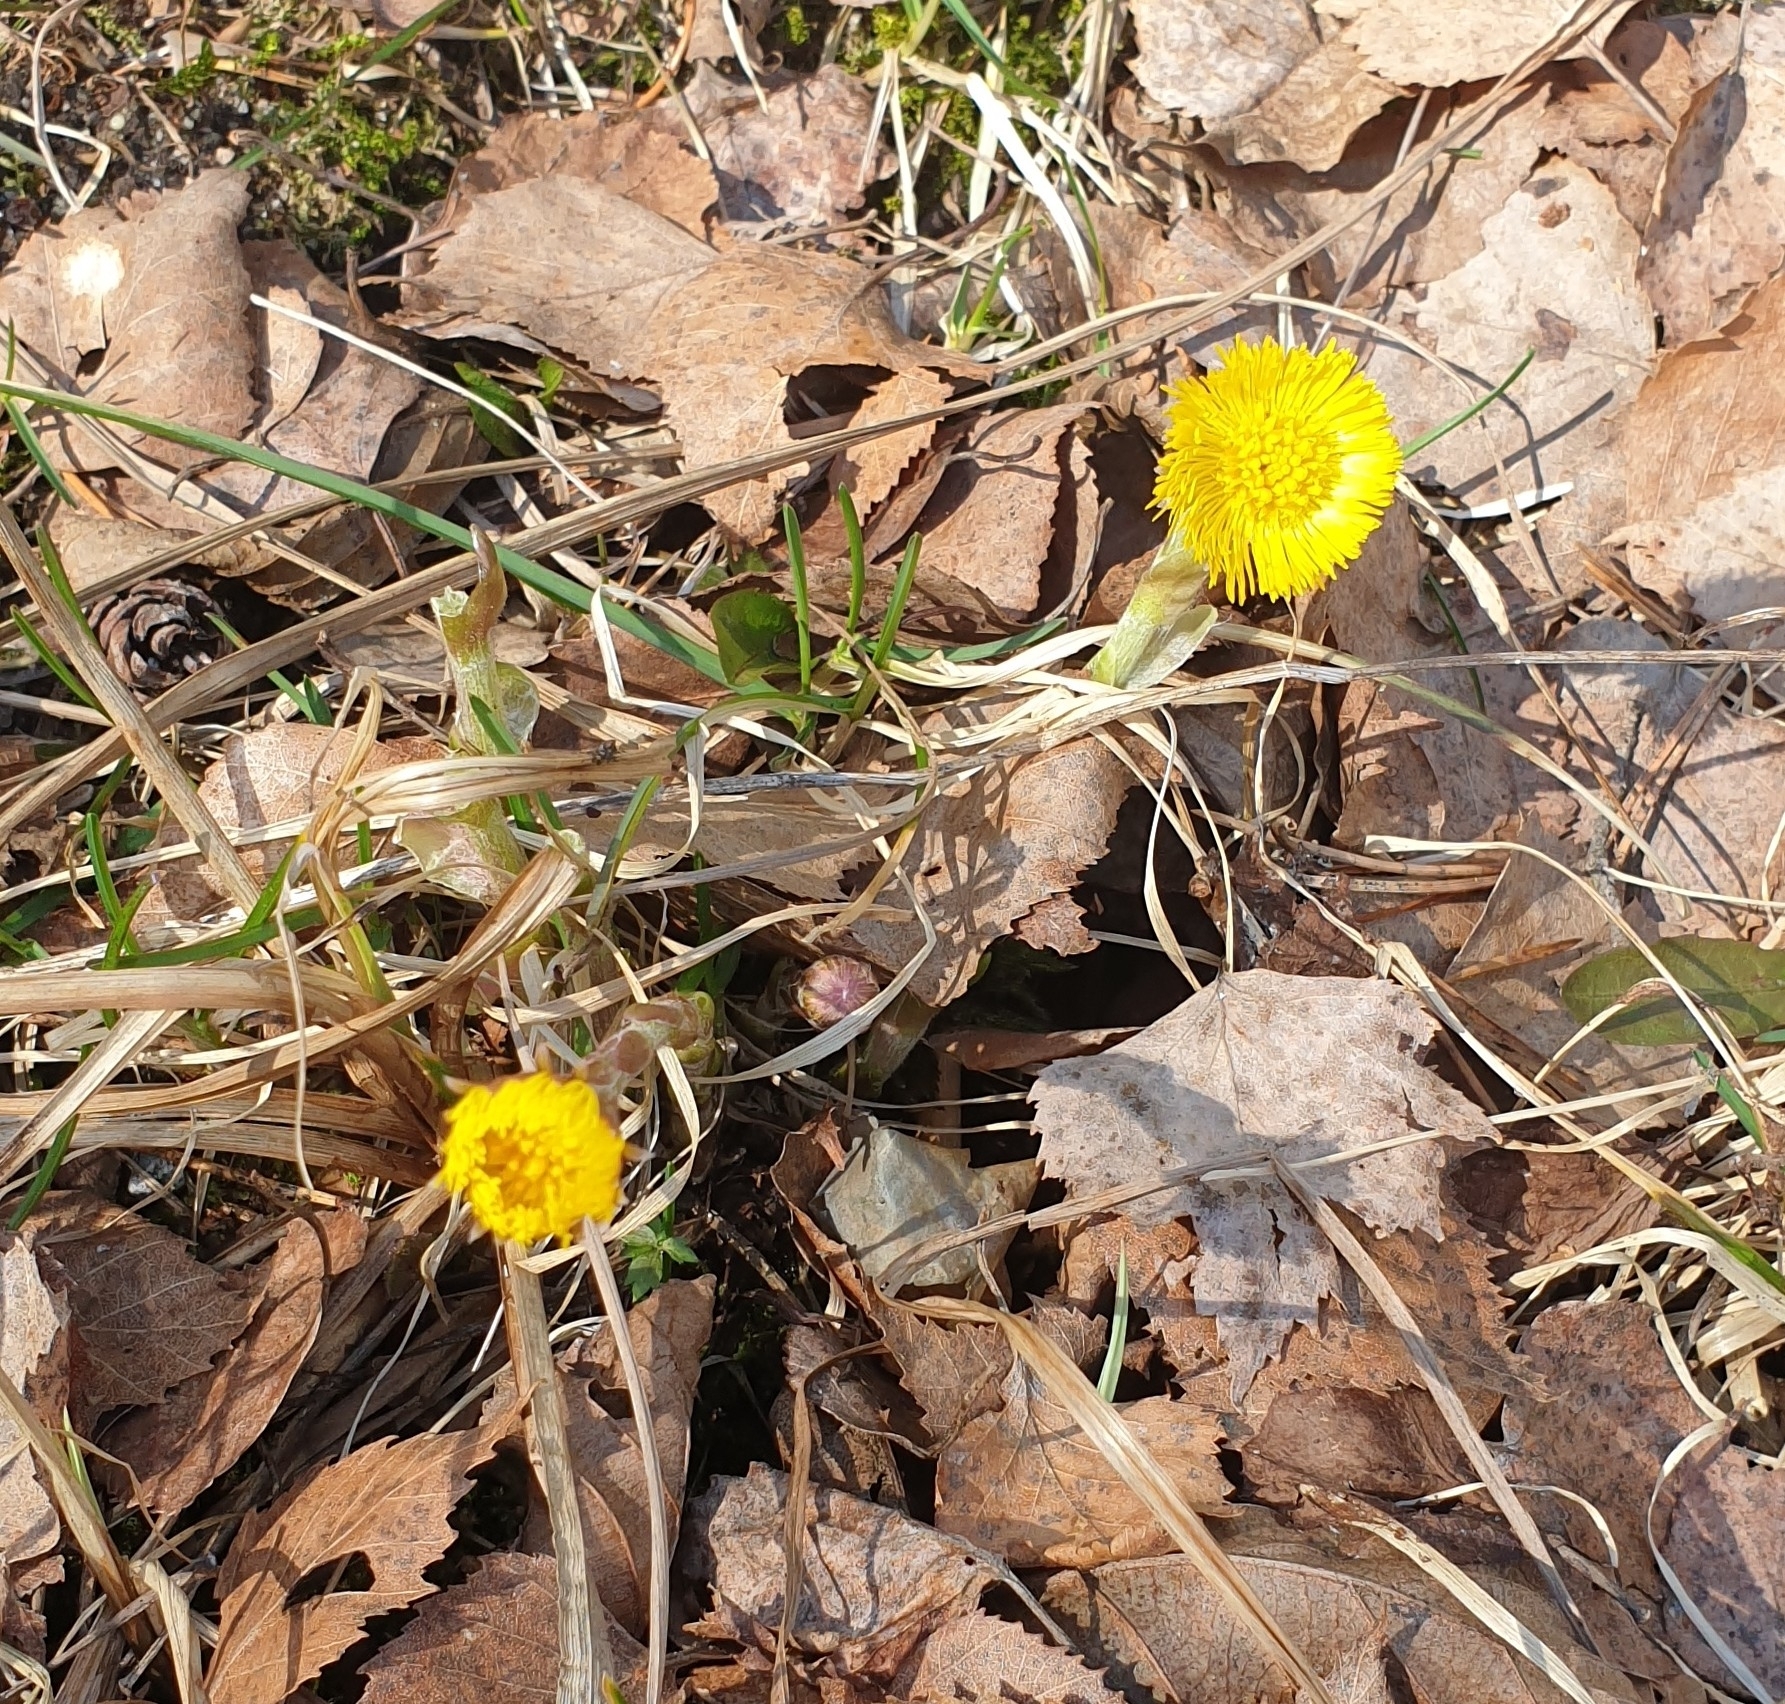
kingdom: Plantae
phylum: Tracheophyta
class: Magnoliopsida
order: Asterales
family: Asteraceae
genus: Tussilago
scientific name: Tussilago farfara
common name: Coltsfoot
